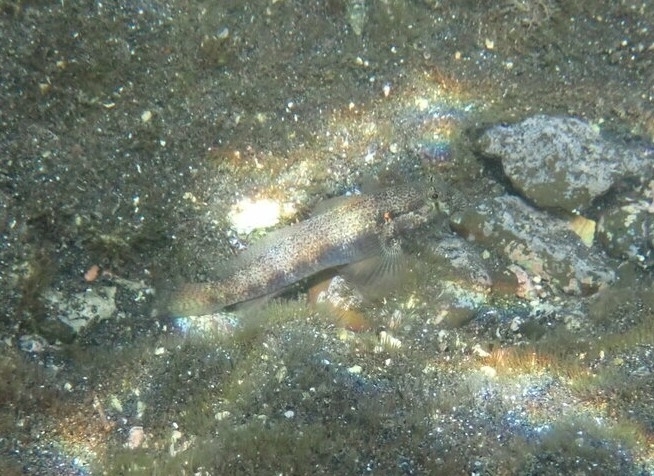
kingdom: Animalia
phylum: Chordata
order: Perciformes
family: Gobiidae
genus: Gnatholepis
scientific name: Gnatholepis thompsoni
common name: Goldspot goby
